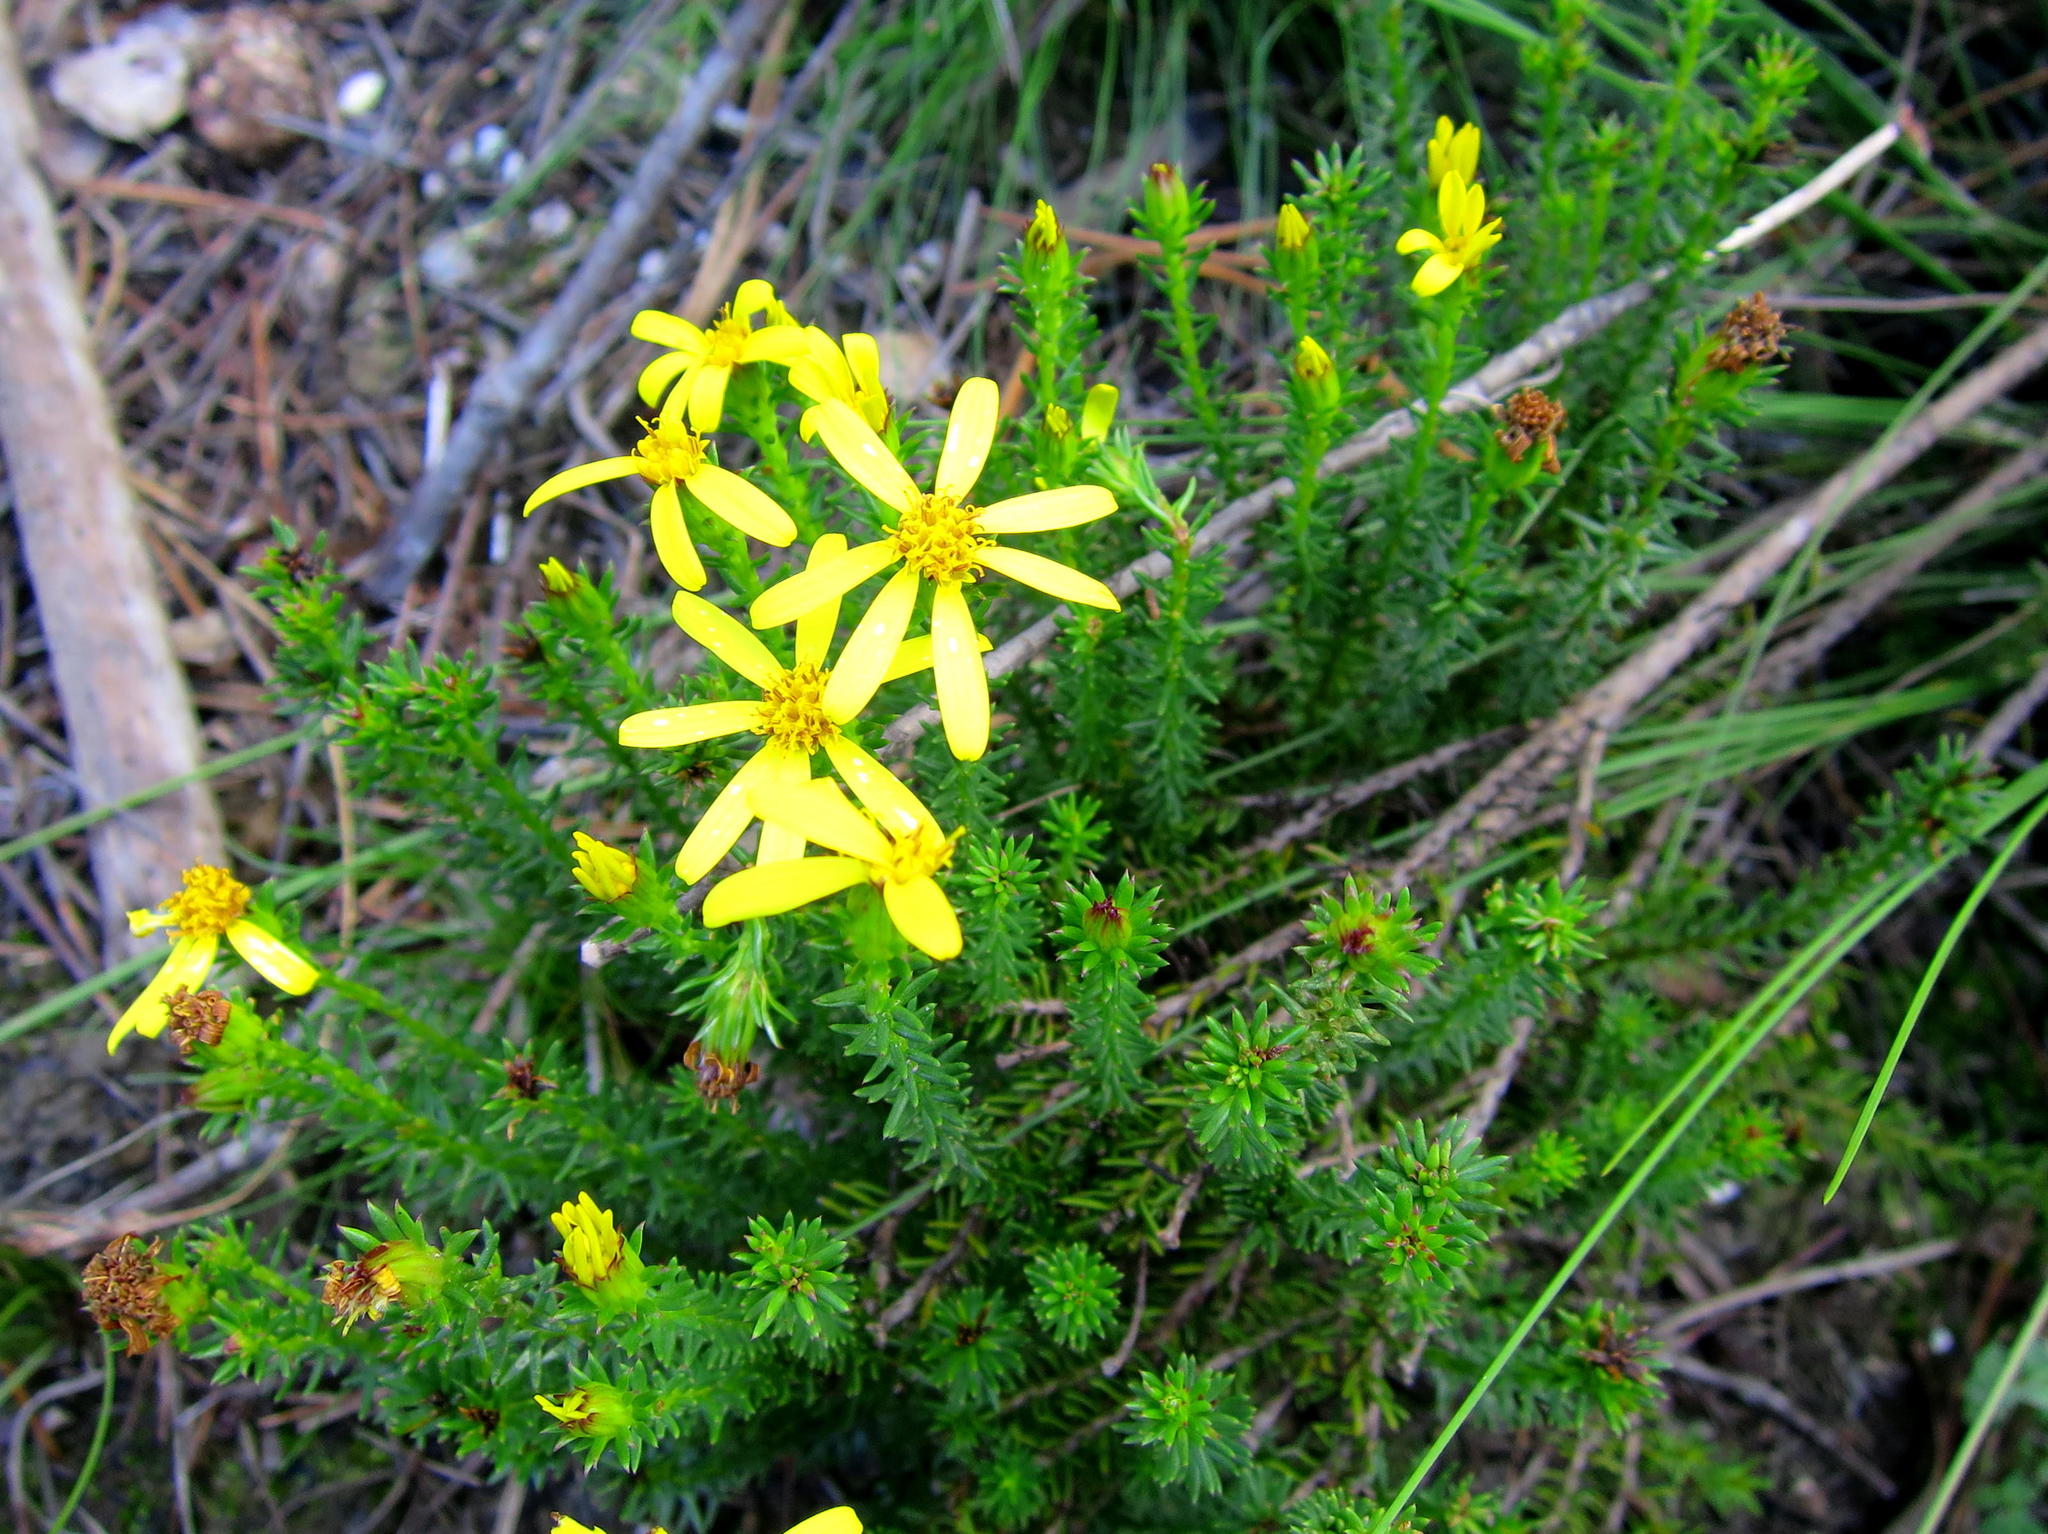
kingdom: Plantae
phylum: Tracheophyta
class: Magnoliopsida
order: Asterales
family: Asteraceae
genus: Senecio
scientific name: Senecio pinifolius
